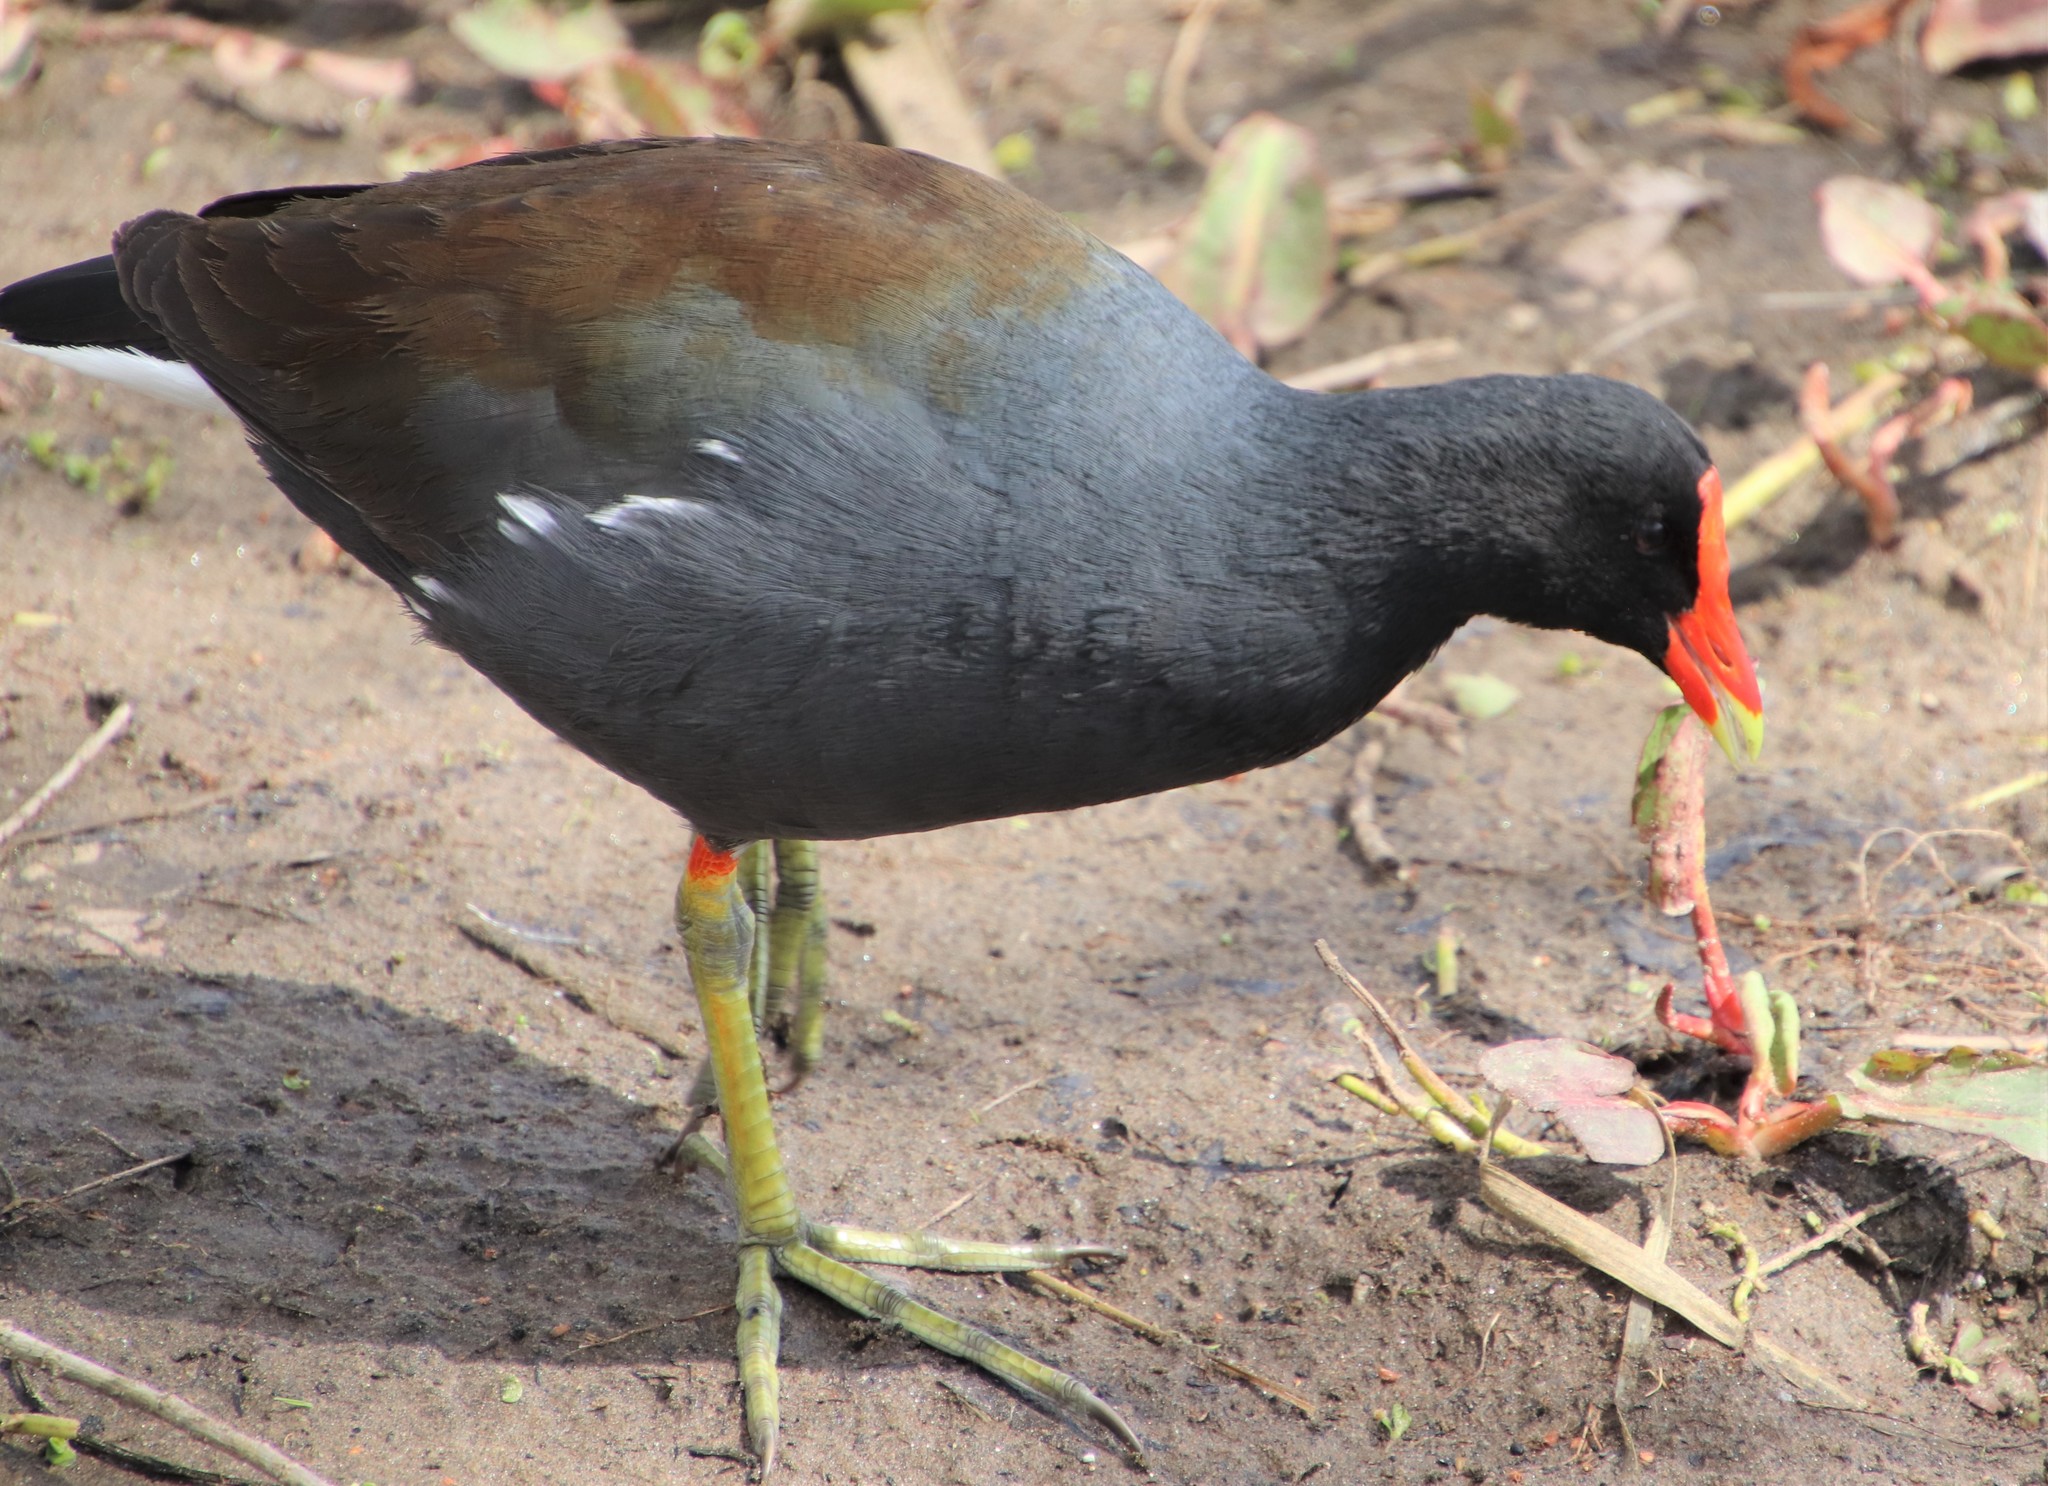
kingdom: Animalia
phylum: Chordata
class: Aves
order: Gruiformes
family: Rallidae
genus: Gallinula
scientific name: Gallinula chloropus
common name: Common moorhen
